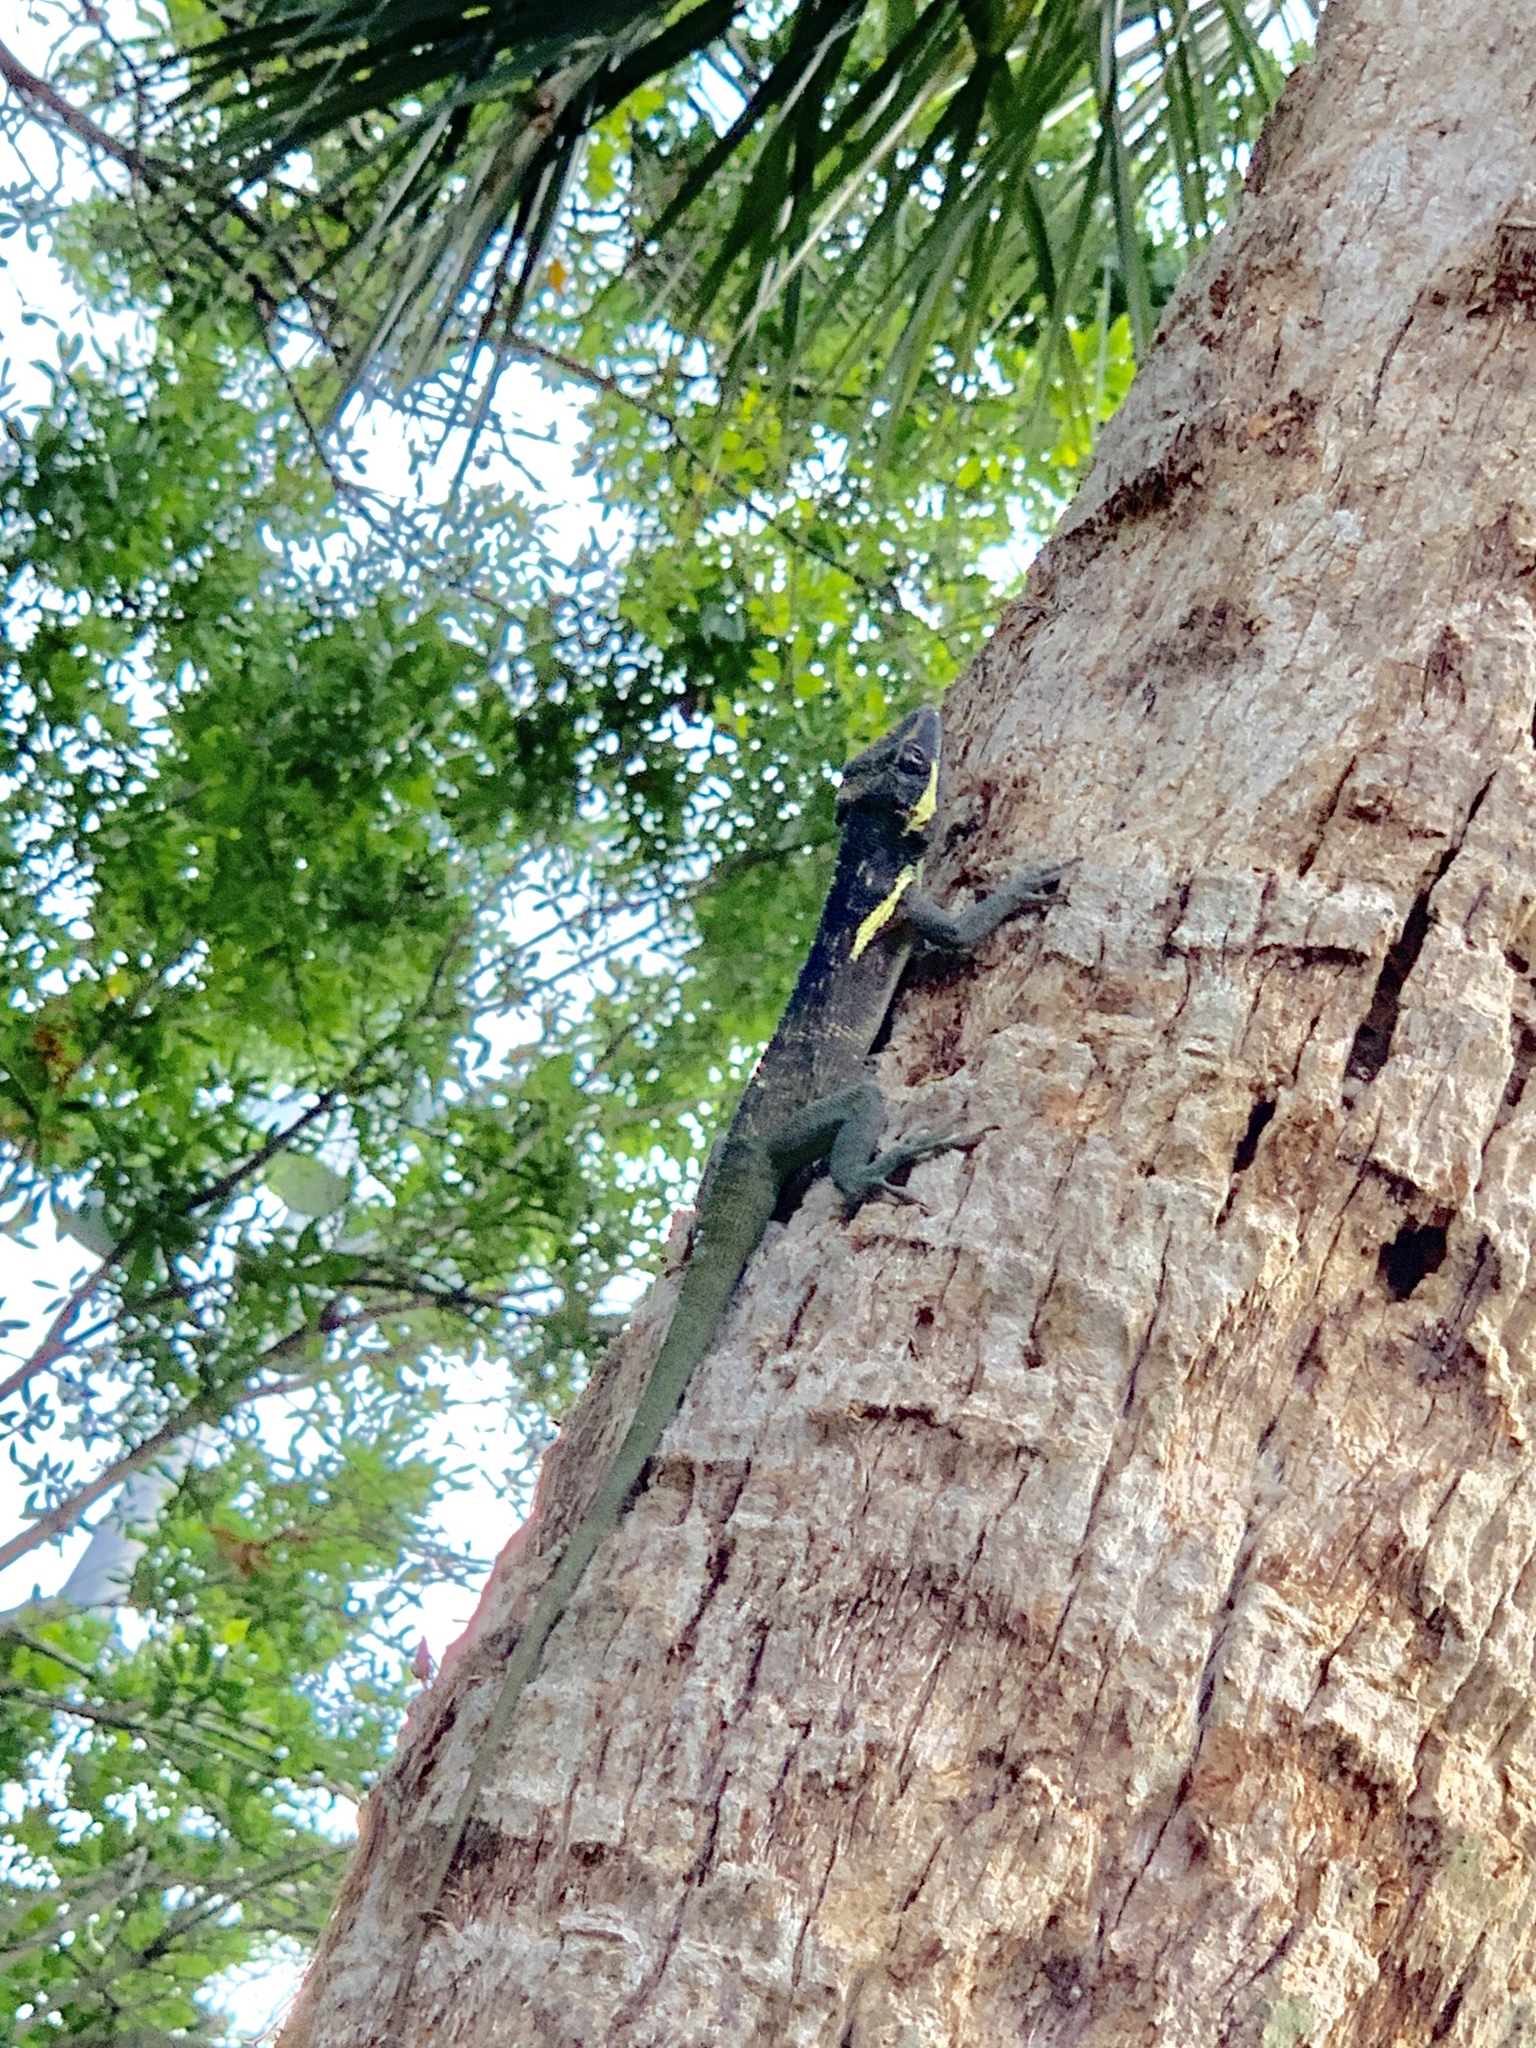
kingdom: Animalia
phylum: Chordata
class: Squamata
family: Dactyloidae
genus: Anolis
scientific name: Anolis equestris
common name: Knight anole
